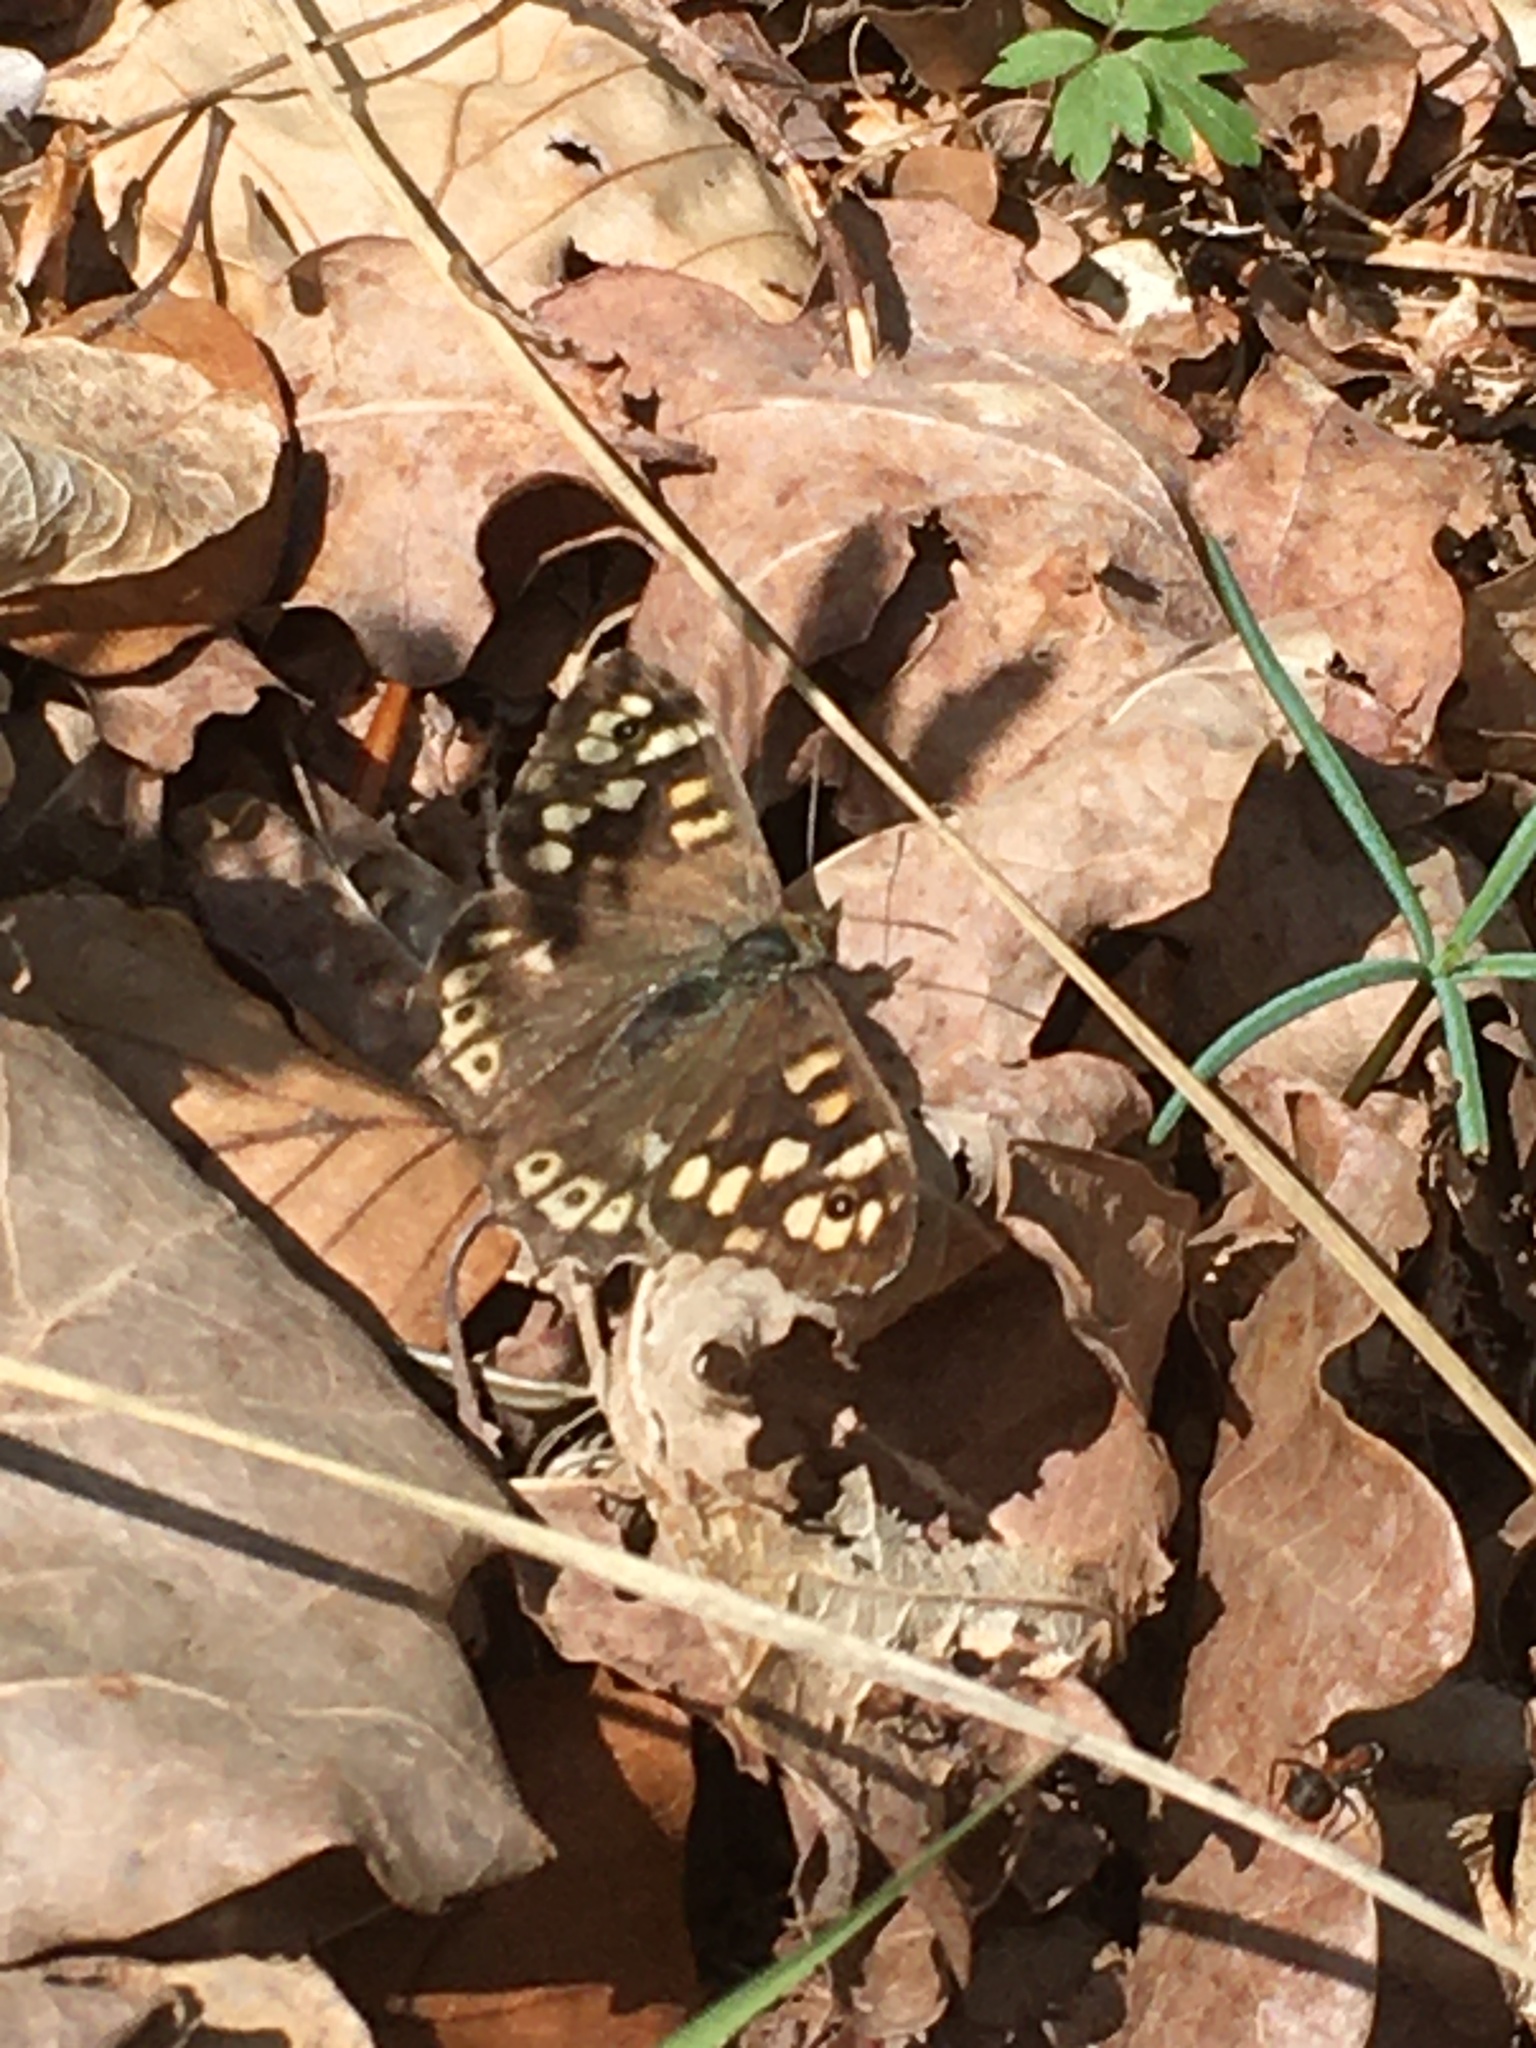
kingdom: Animalia
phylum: Arthropoda
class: Insecta
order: Lepidoptera
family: Nymphalidae
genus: Pararge
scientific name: Pararge aegeria
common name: Speckled wood
